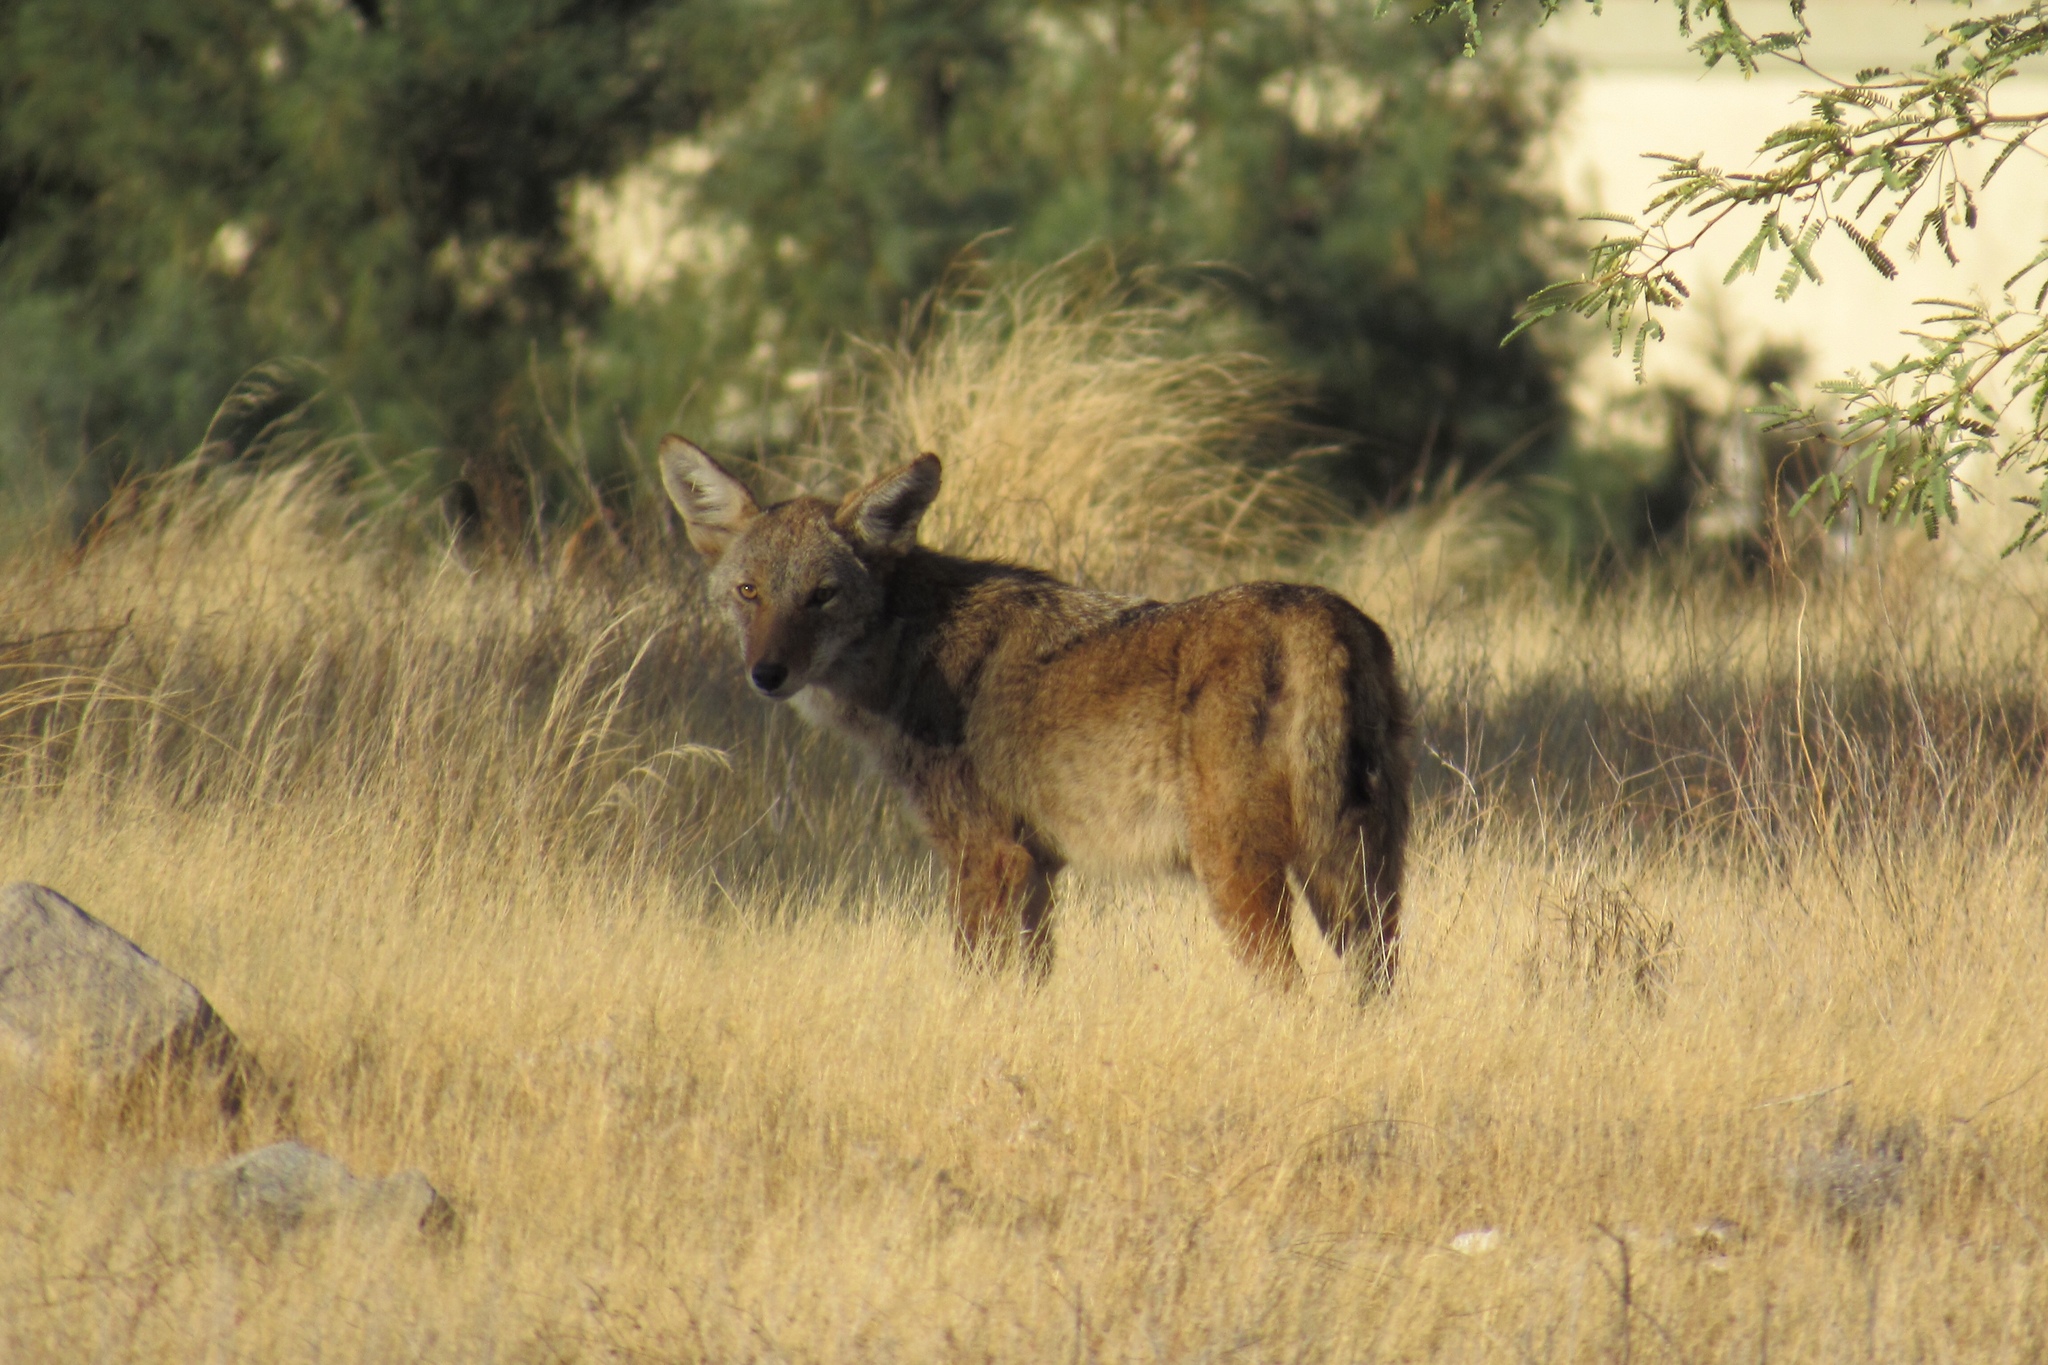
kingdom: Animalia
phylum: Chordata
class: Mammalia
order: Carnivora
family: Canidae
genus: Canis
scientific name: Canis latrans
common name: Coyote
